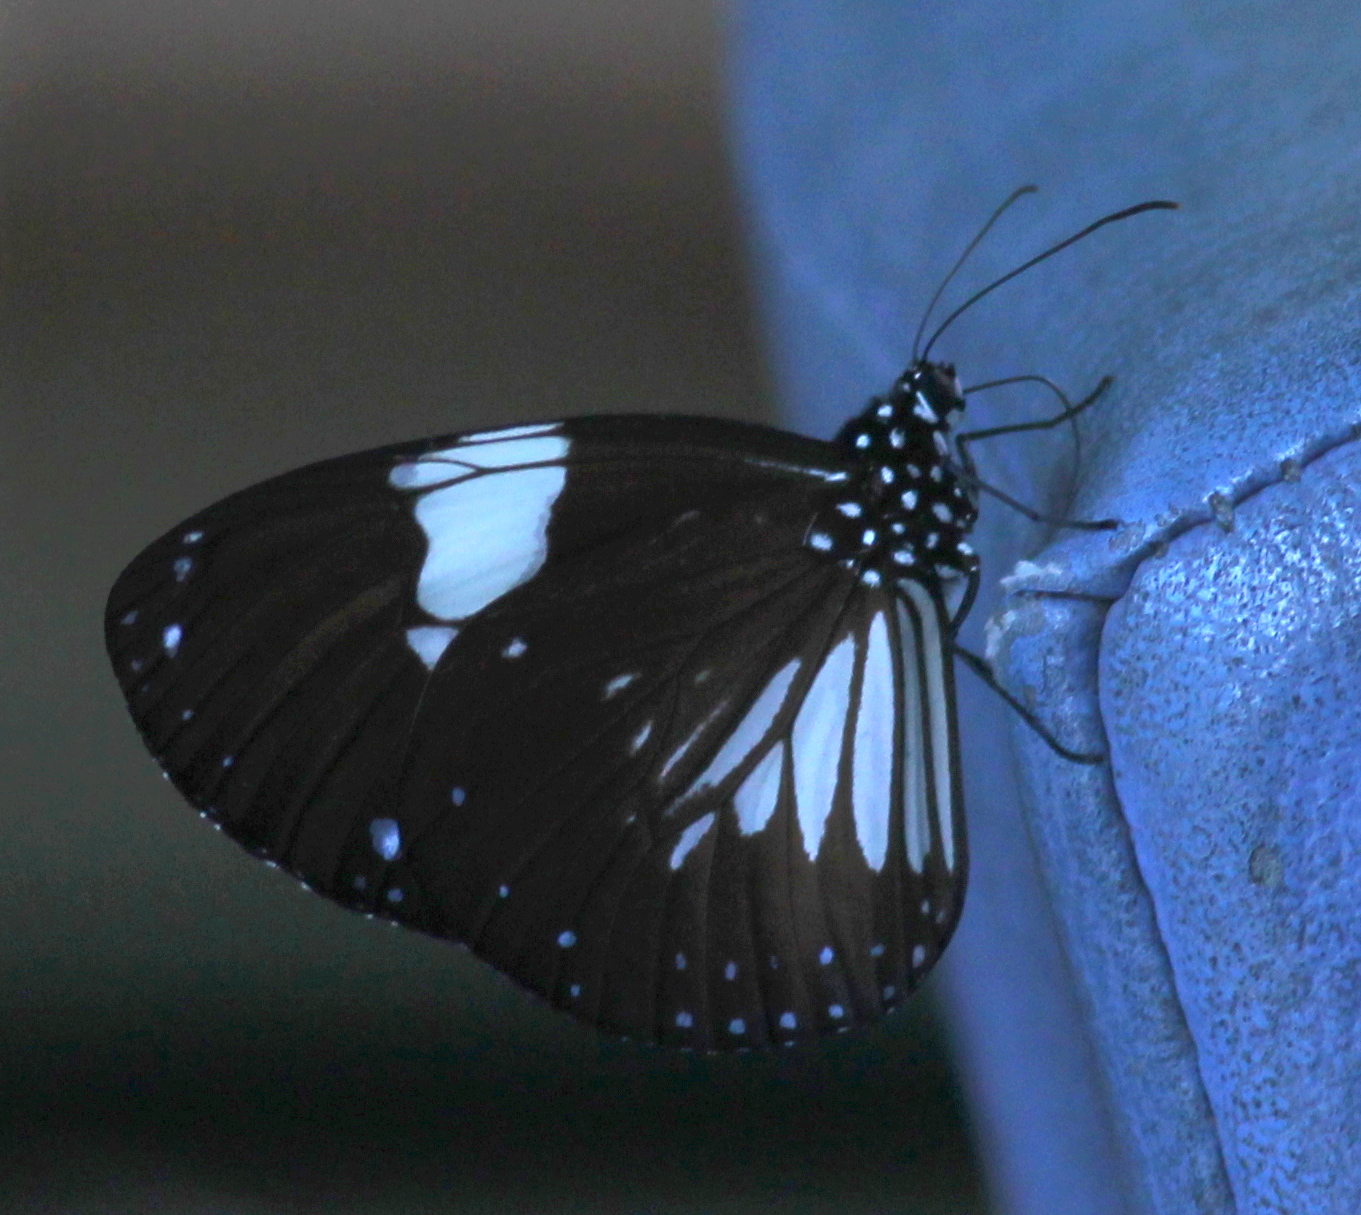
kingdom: Animalia
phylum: Arthropoda
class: Insecta
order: Lepidoptera
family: Nymphalidae
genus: Euploea
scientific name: Euploea radamanthus
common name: Magpie crow butterfly
